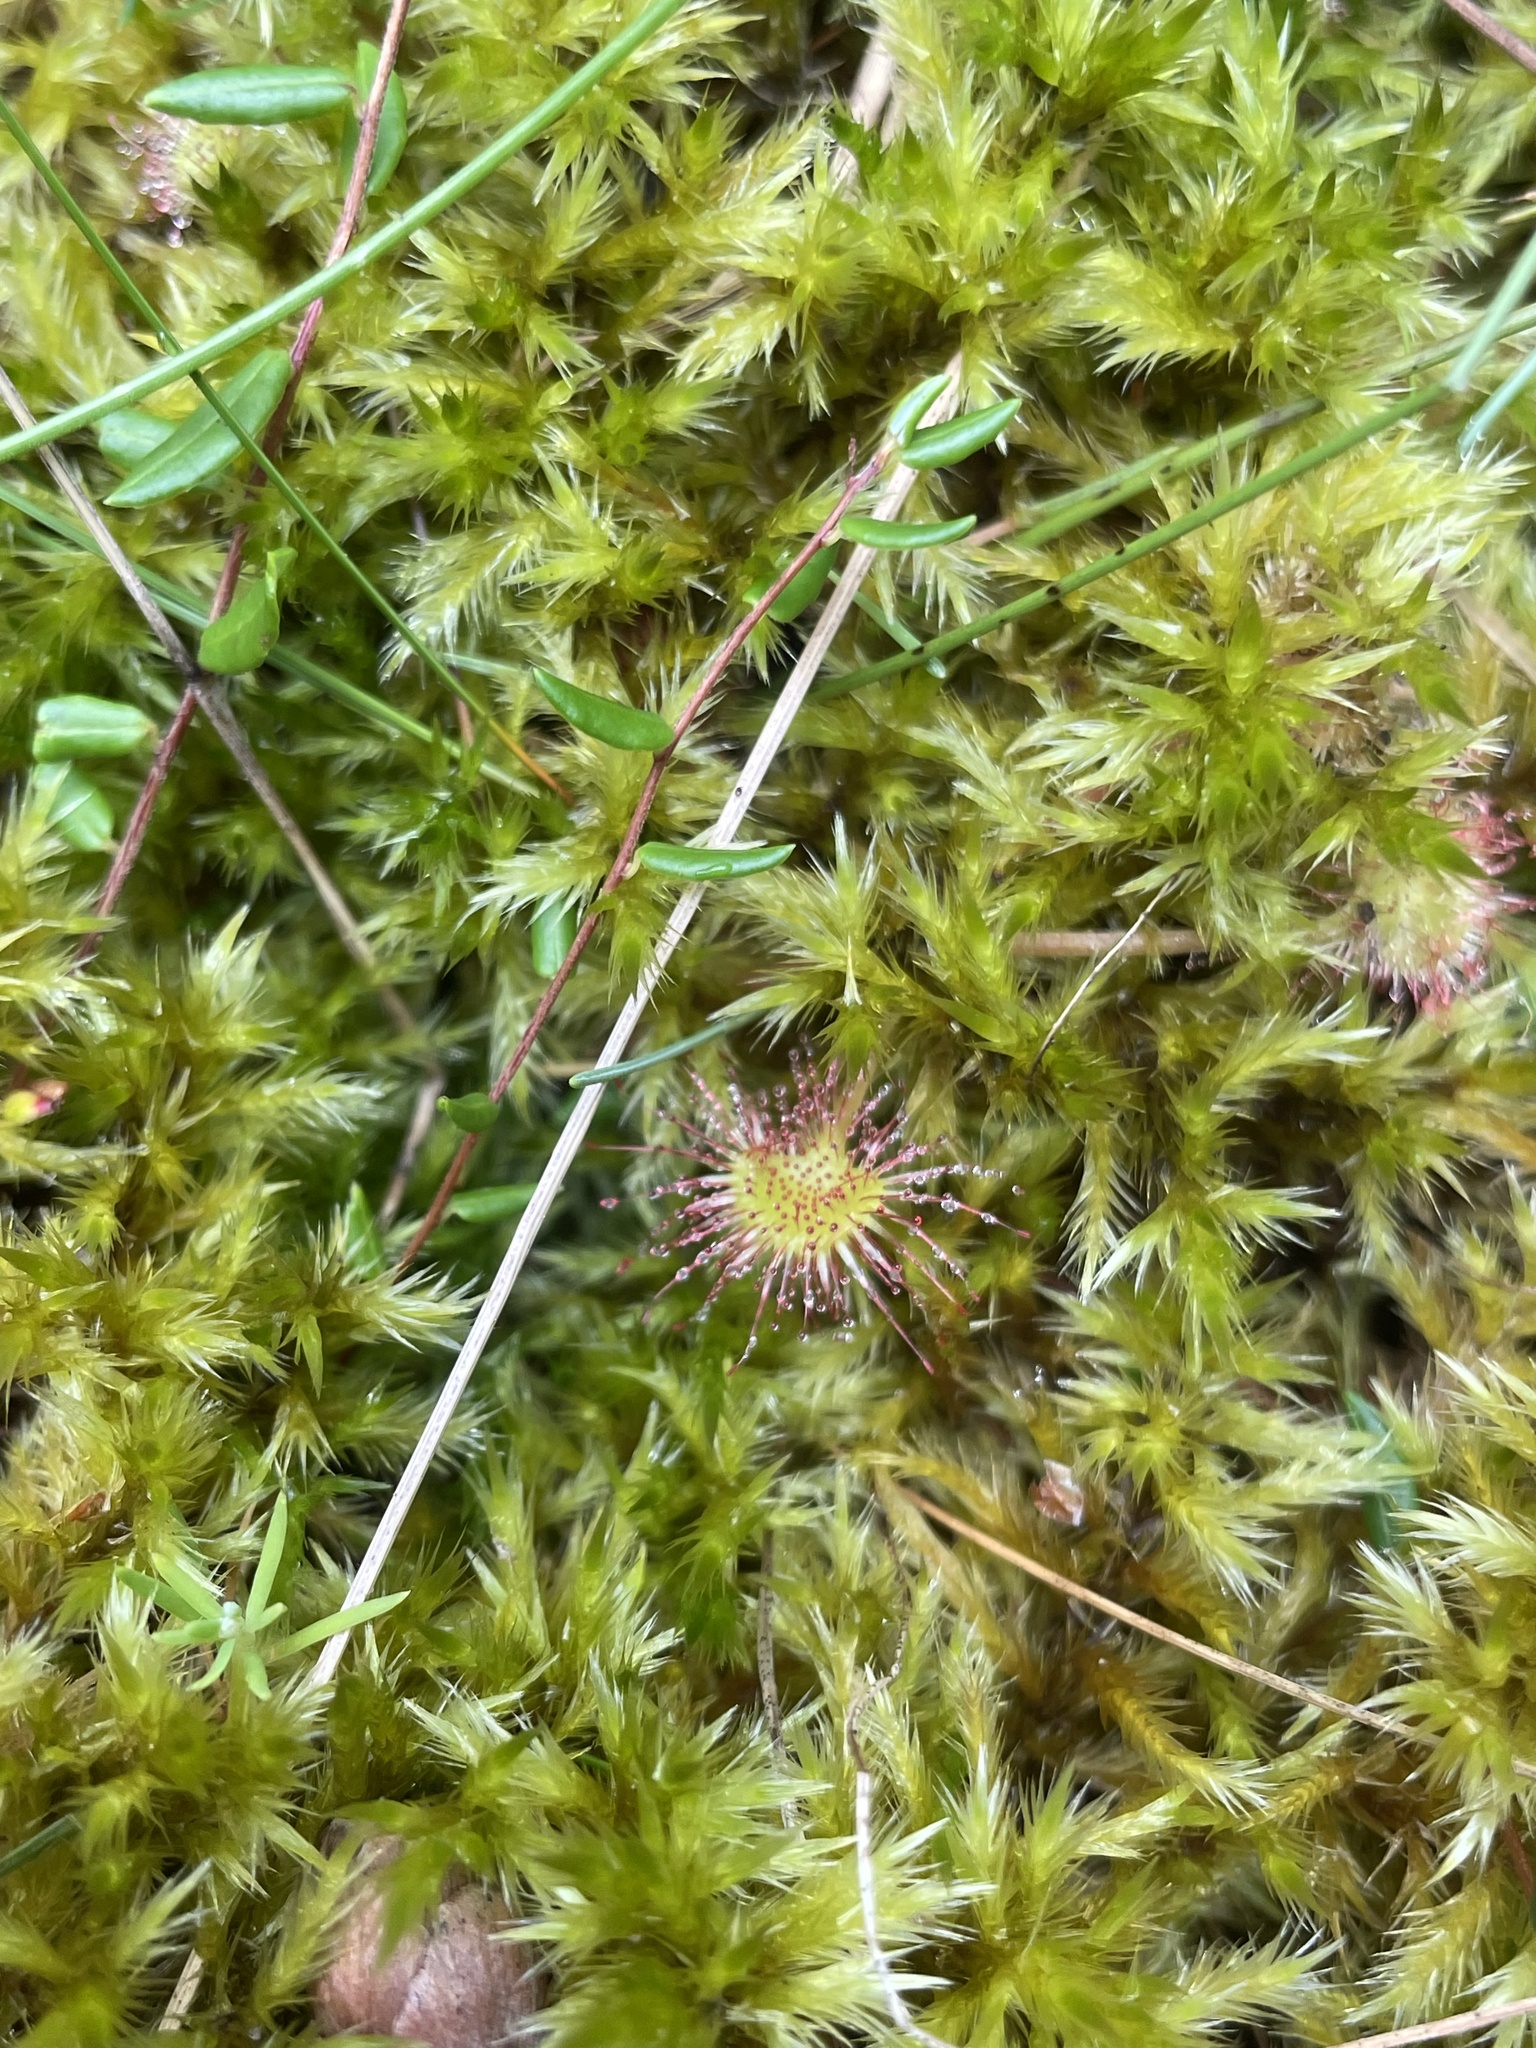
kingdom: Plantae
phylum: Tracheophyta
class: Magnoliopsida
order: Caryophyllales
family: Droseraceae
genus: Drosera
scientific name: Drosera rotundifolia
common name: Round-leaved sundew
